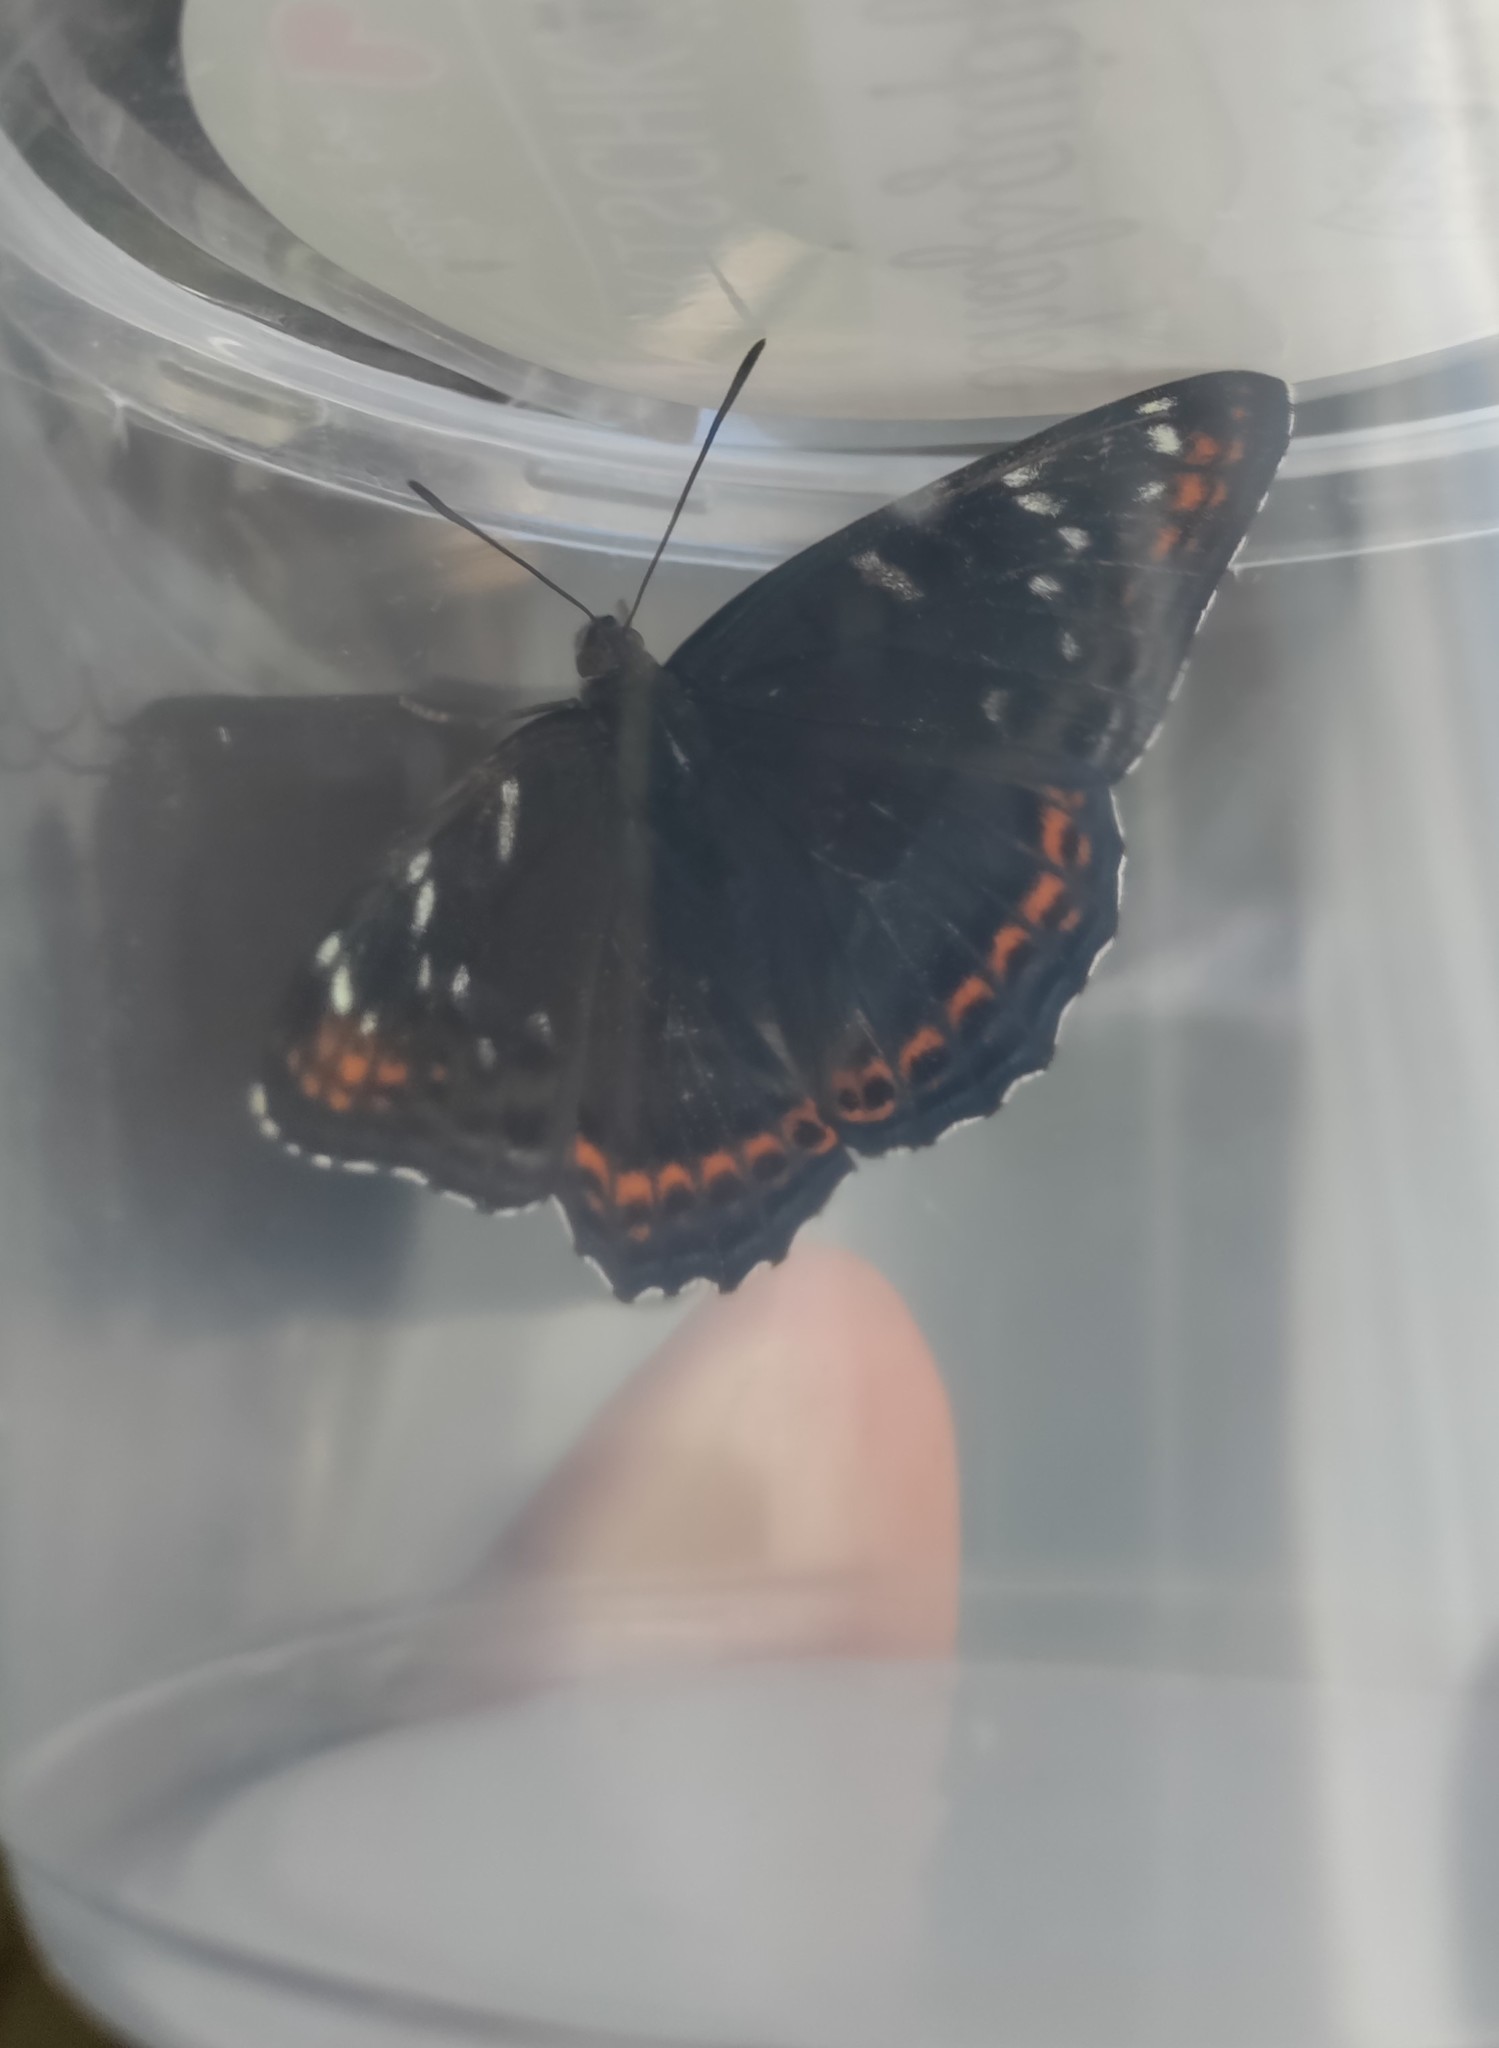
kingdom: Animalia
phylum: Arthropoda
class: Insecta
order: Lepidoptera
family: Nymphalidae
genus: Limenitis
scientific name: Limenitis populi
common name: Poplar admiral
